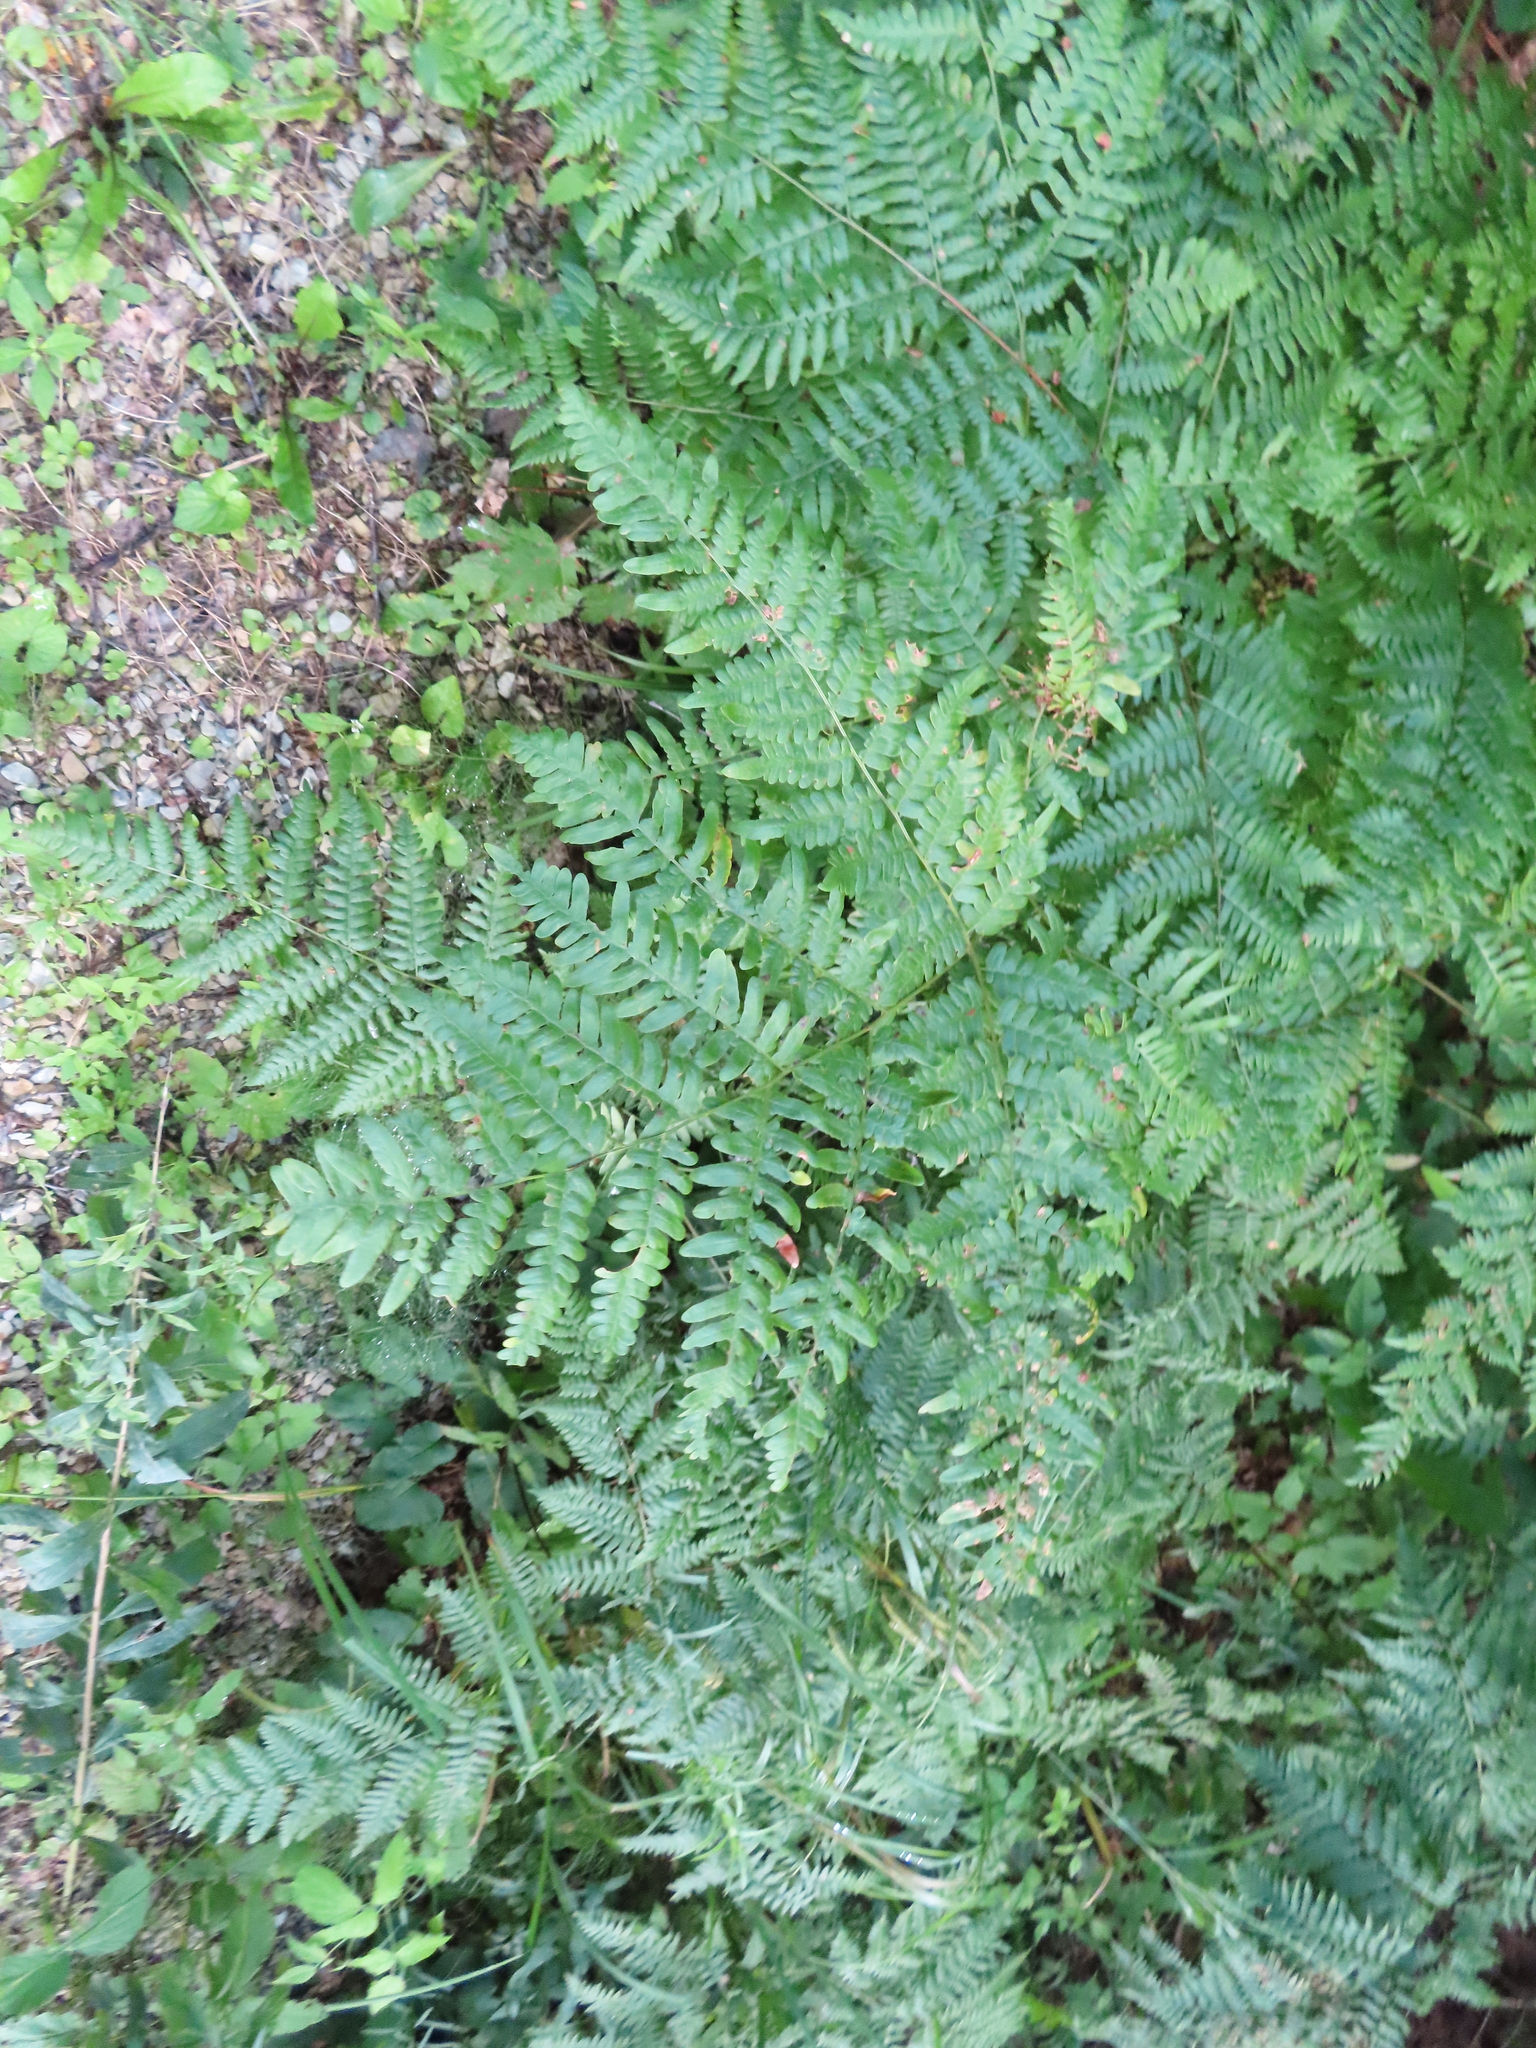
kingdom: Plantae
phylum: Tracheophyta
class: Polypodiopsida
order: Polypodiales
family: Dennstaedtiaceae
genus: Pteridium
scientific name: Pteridium aquilinum
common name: Bracken
